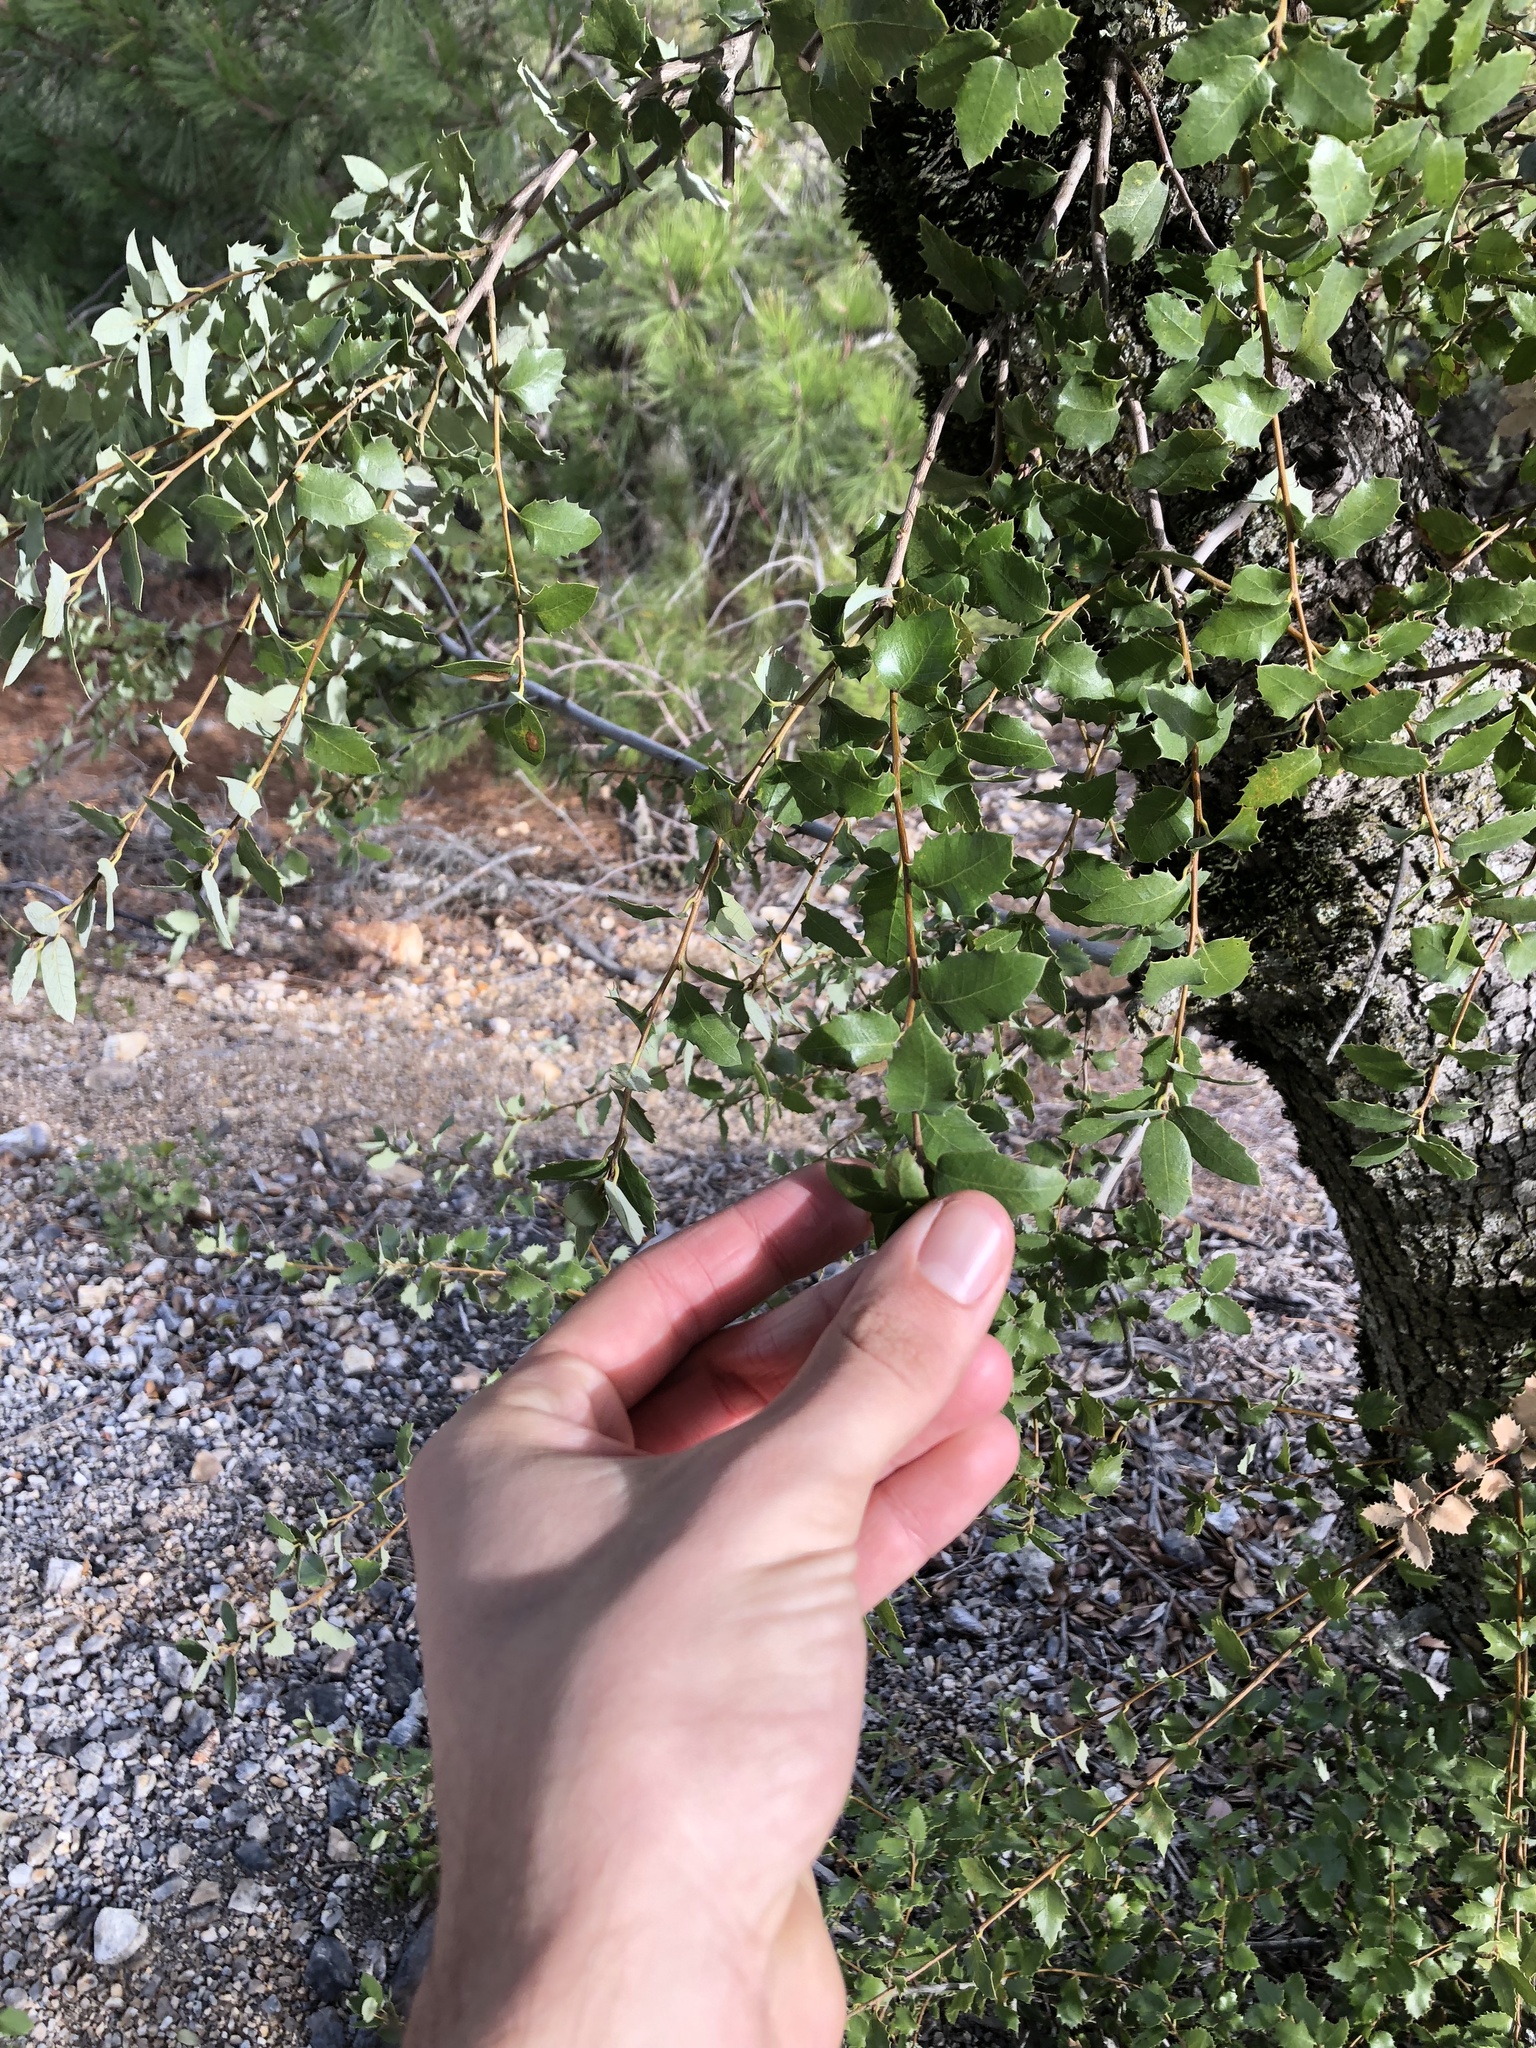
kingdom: Plantae
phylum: Tracheophyta
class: Magnoliopsida
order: Fagales
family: Fagaceae
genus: Quercus
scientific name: Quercus chrysolepis
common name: Canyon live oak
